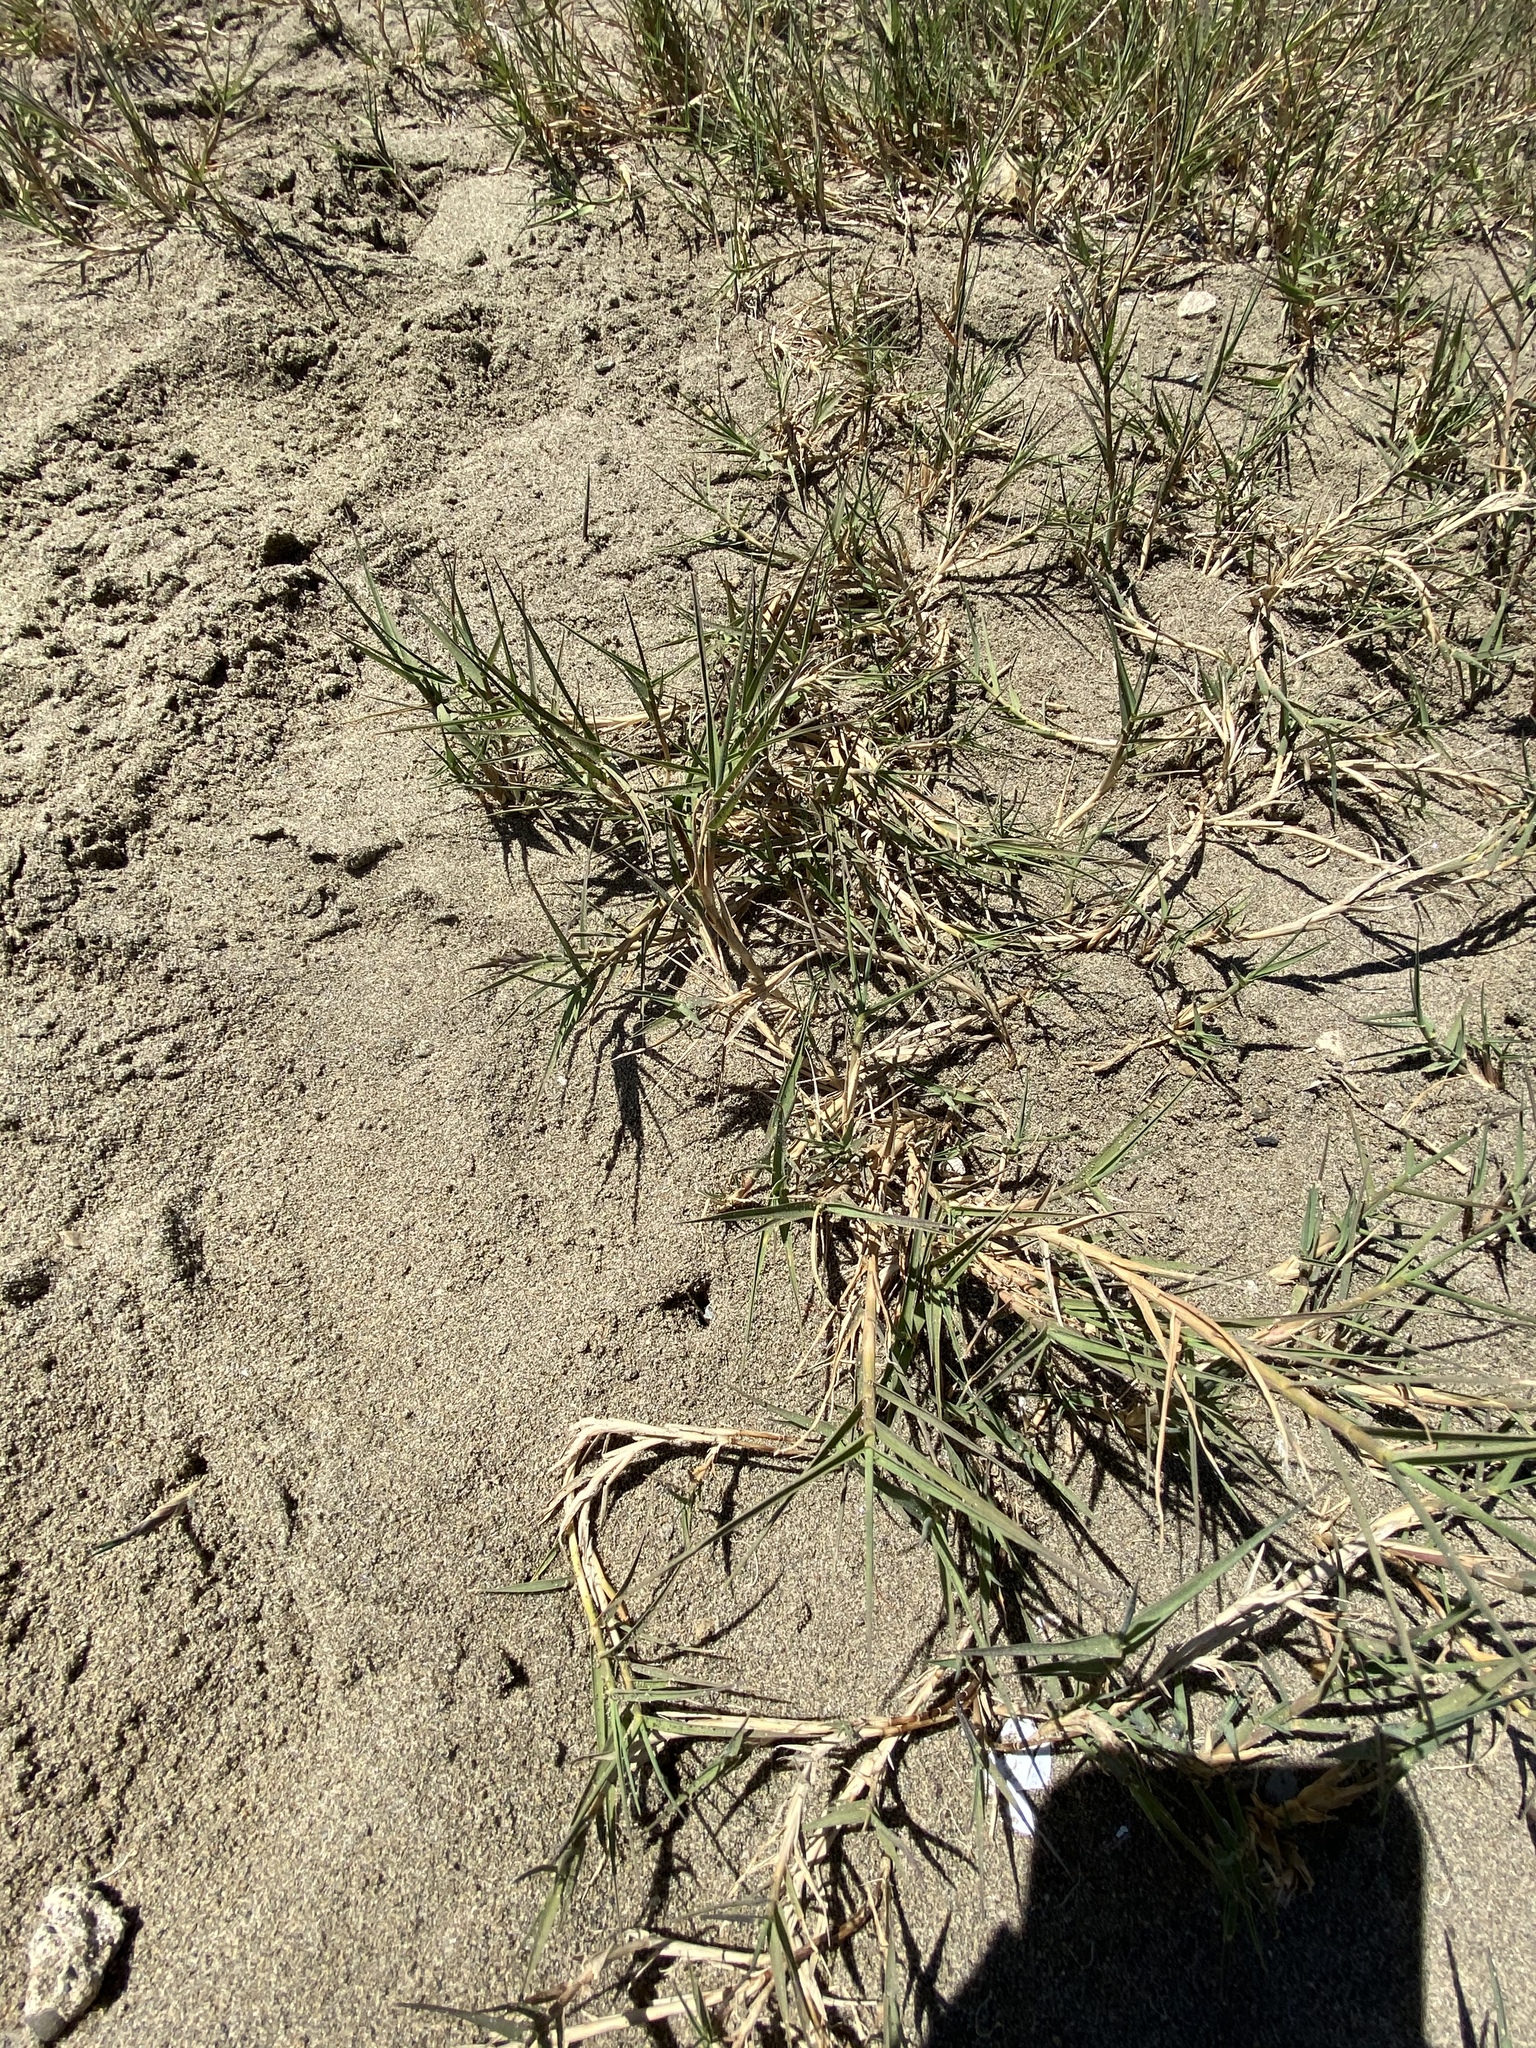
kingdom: Plantae
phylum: Tracheophyta
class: Liliopsida
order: Poales
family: Poaceae
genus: Distichlis
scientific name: Distichlis spicata
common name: Saltgrass
